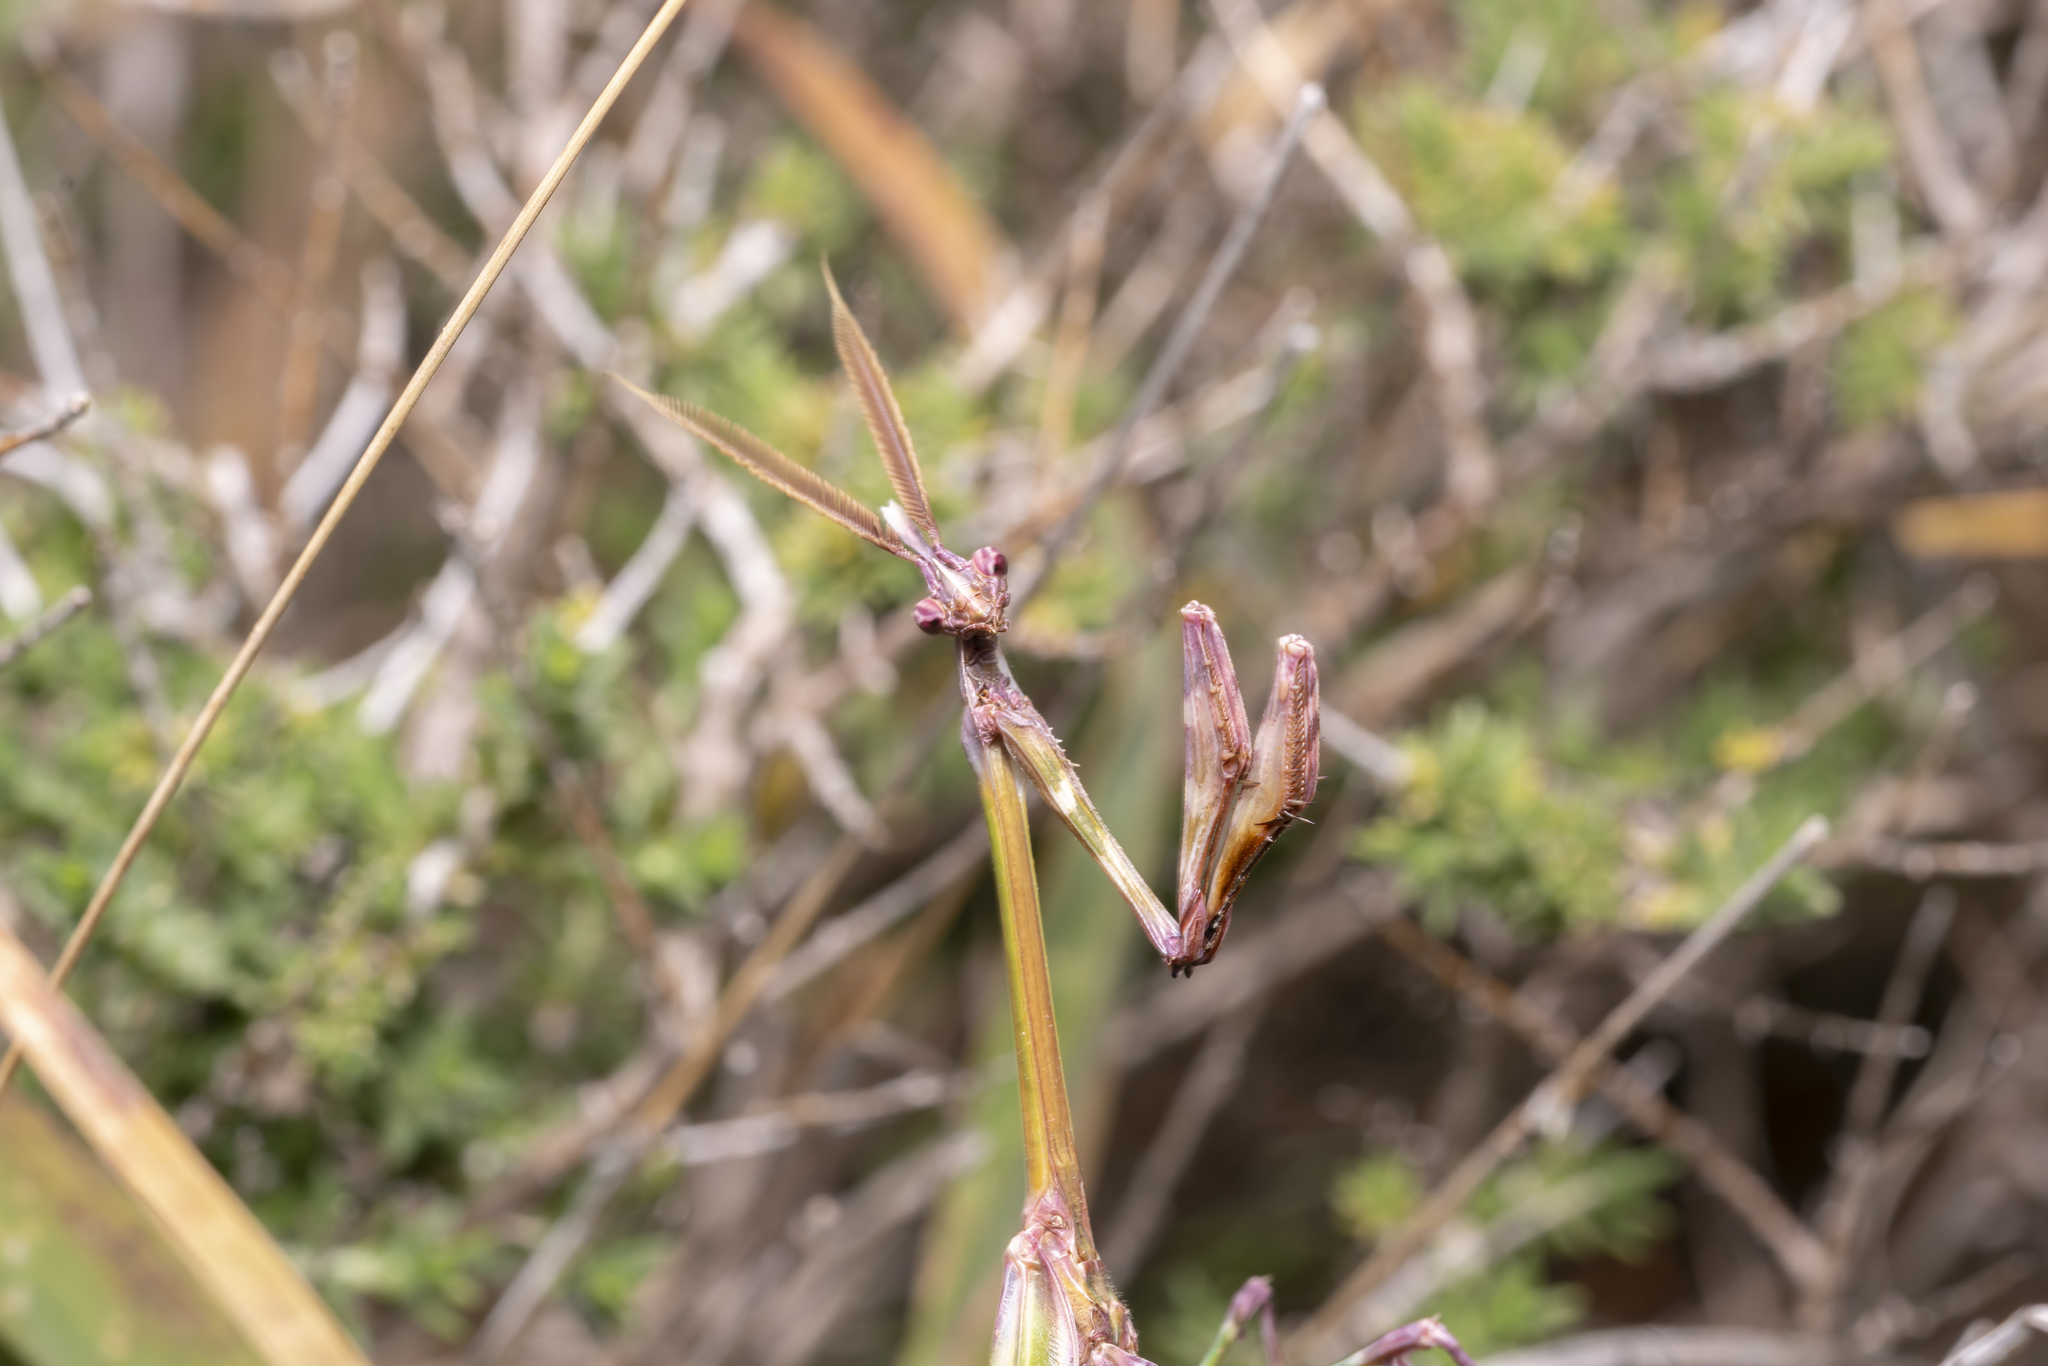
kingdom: Animalia
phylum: Arthropoda
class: Insecta
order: Mantodea
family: Empusidae
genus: Empusa
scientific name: Empusa fasciata
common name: Devil's mare
